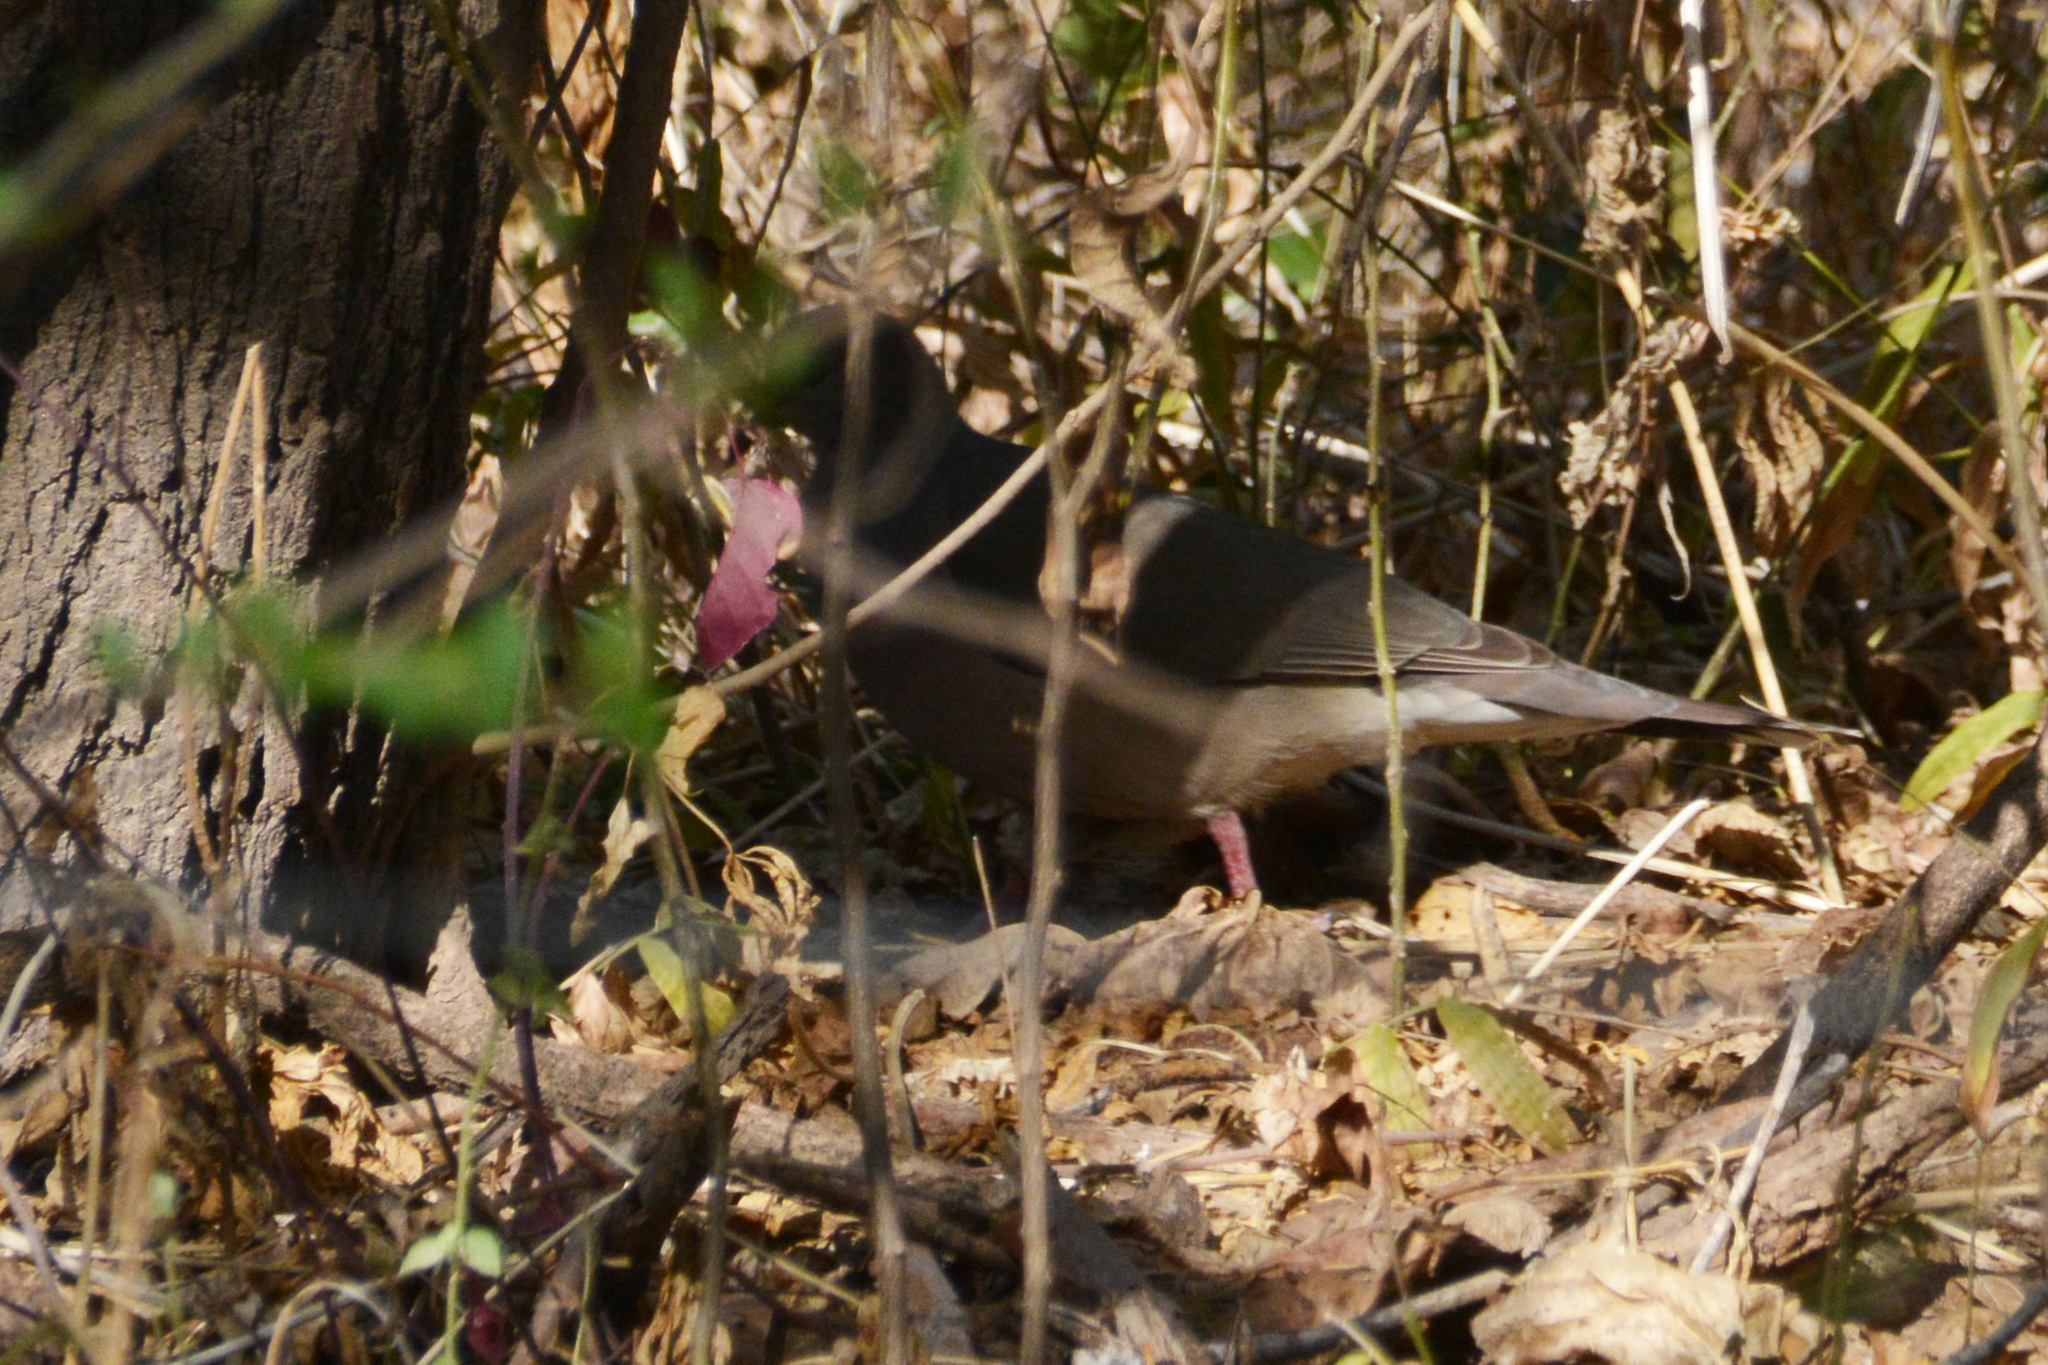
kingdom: Animalia
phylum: Chordata
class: Aves
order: Columbiformes
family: Columbidae
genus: Leptotila
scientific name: Leptotila verreauxi
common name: White-tipped dove
